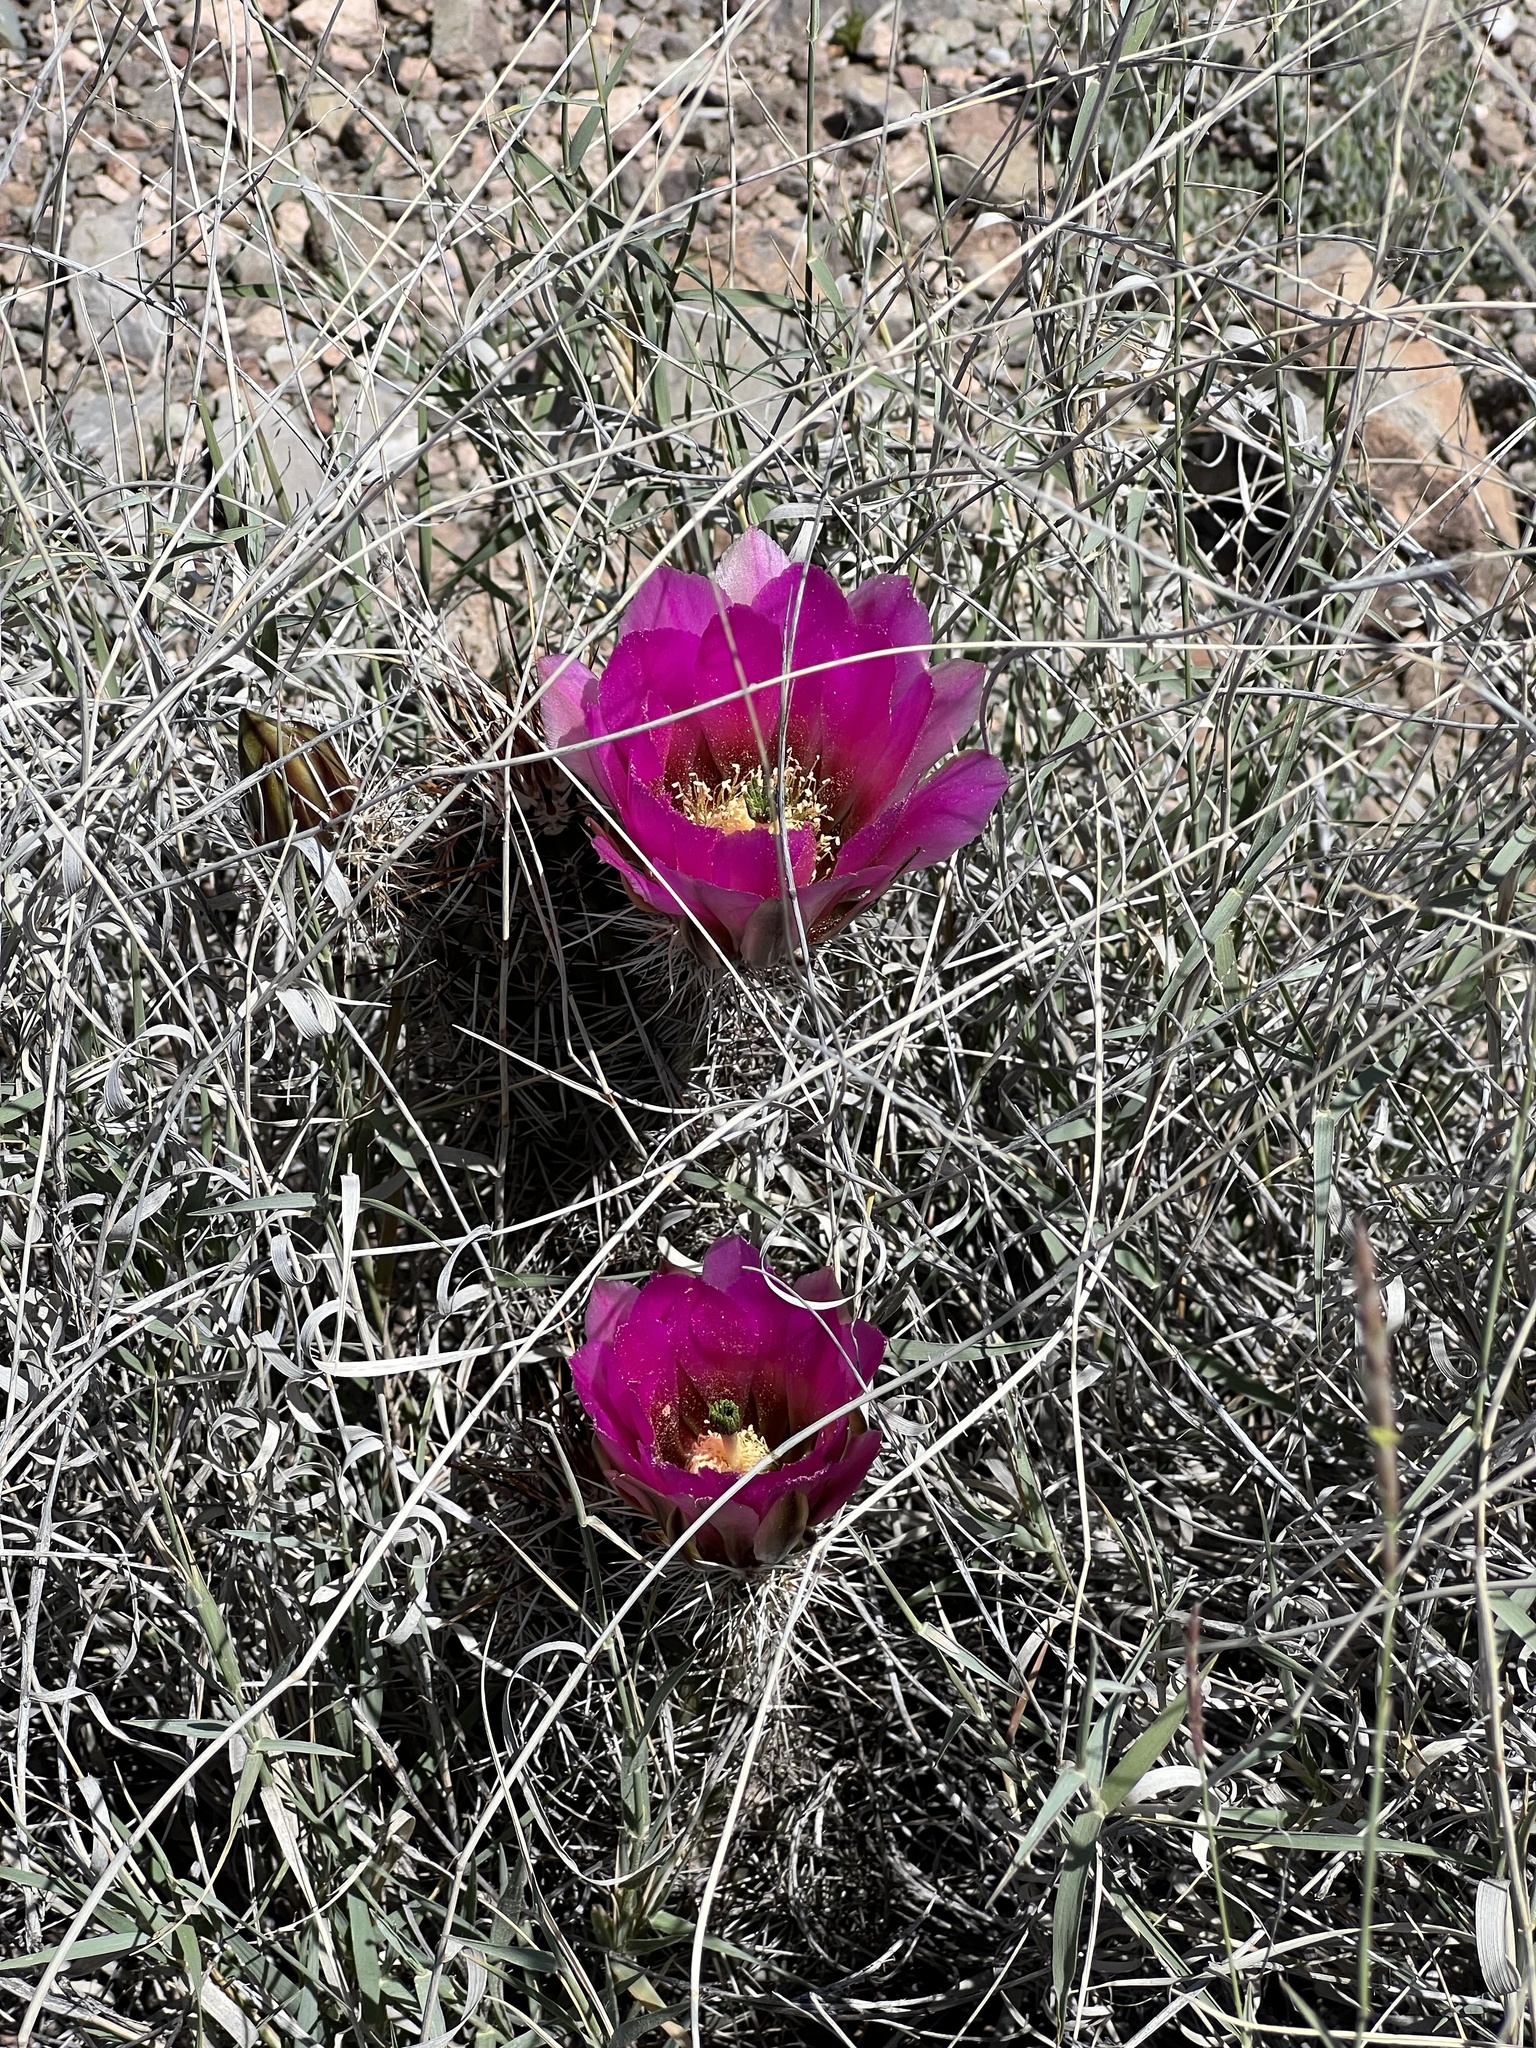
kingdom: Plantae
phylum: Tracheophyta
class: Magnoliopsida
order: Caryophyllales
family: Cactaceae
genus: Echinocereus
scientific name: Echinocereus fasciculatus
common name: Bundle hedgehog
